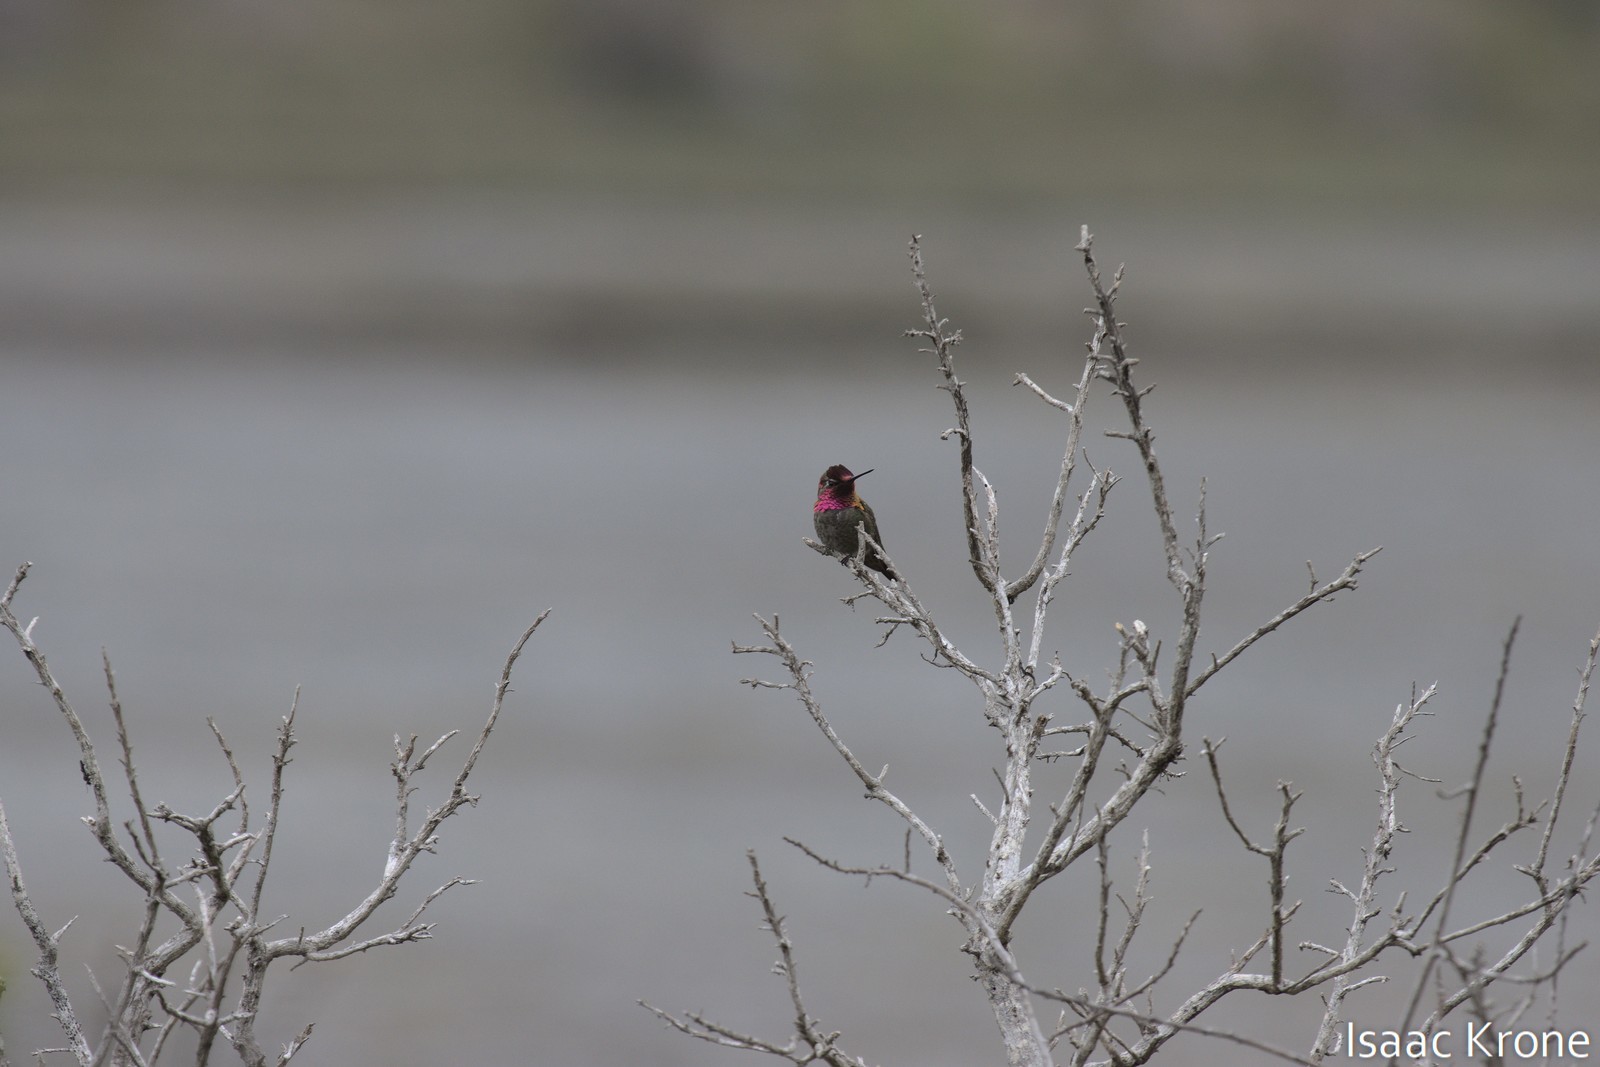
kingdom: Animalia
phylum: Chordata
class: Aves
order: Apodiformes
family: Trochilidae
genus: Calypte
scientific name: Calypte anna
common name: Anna's hummingbird
